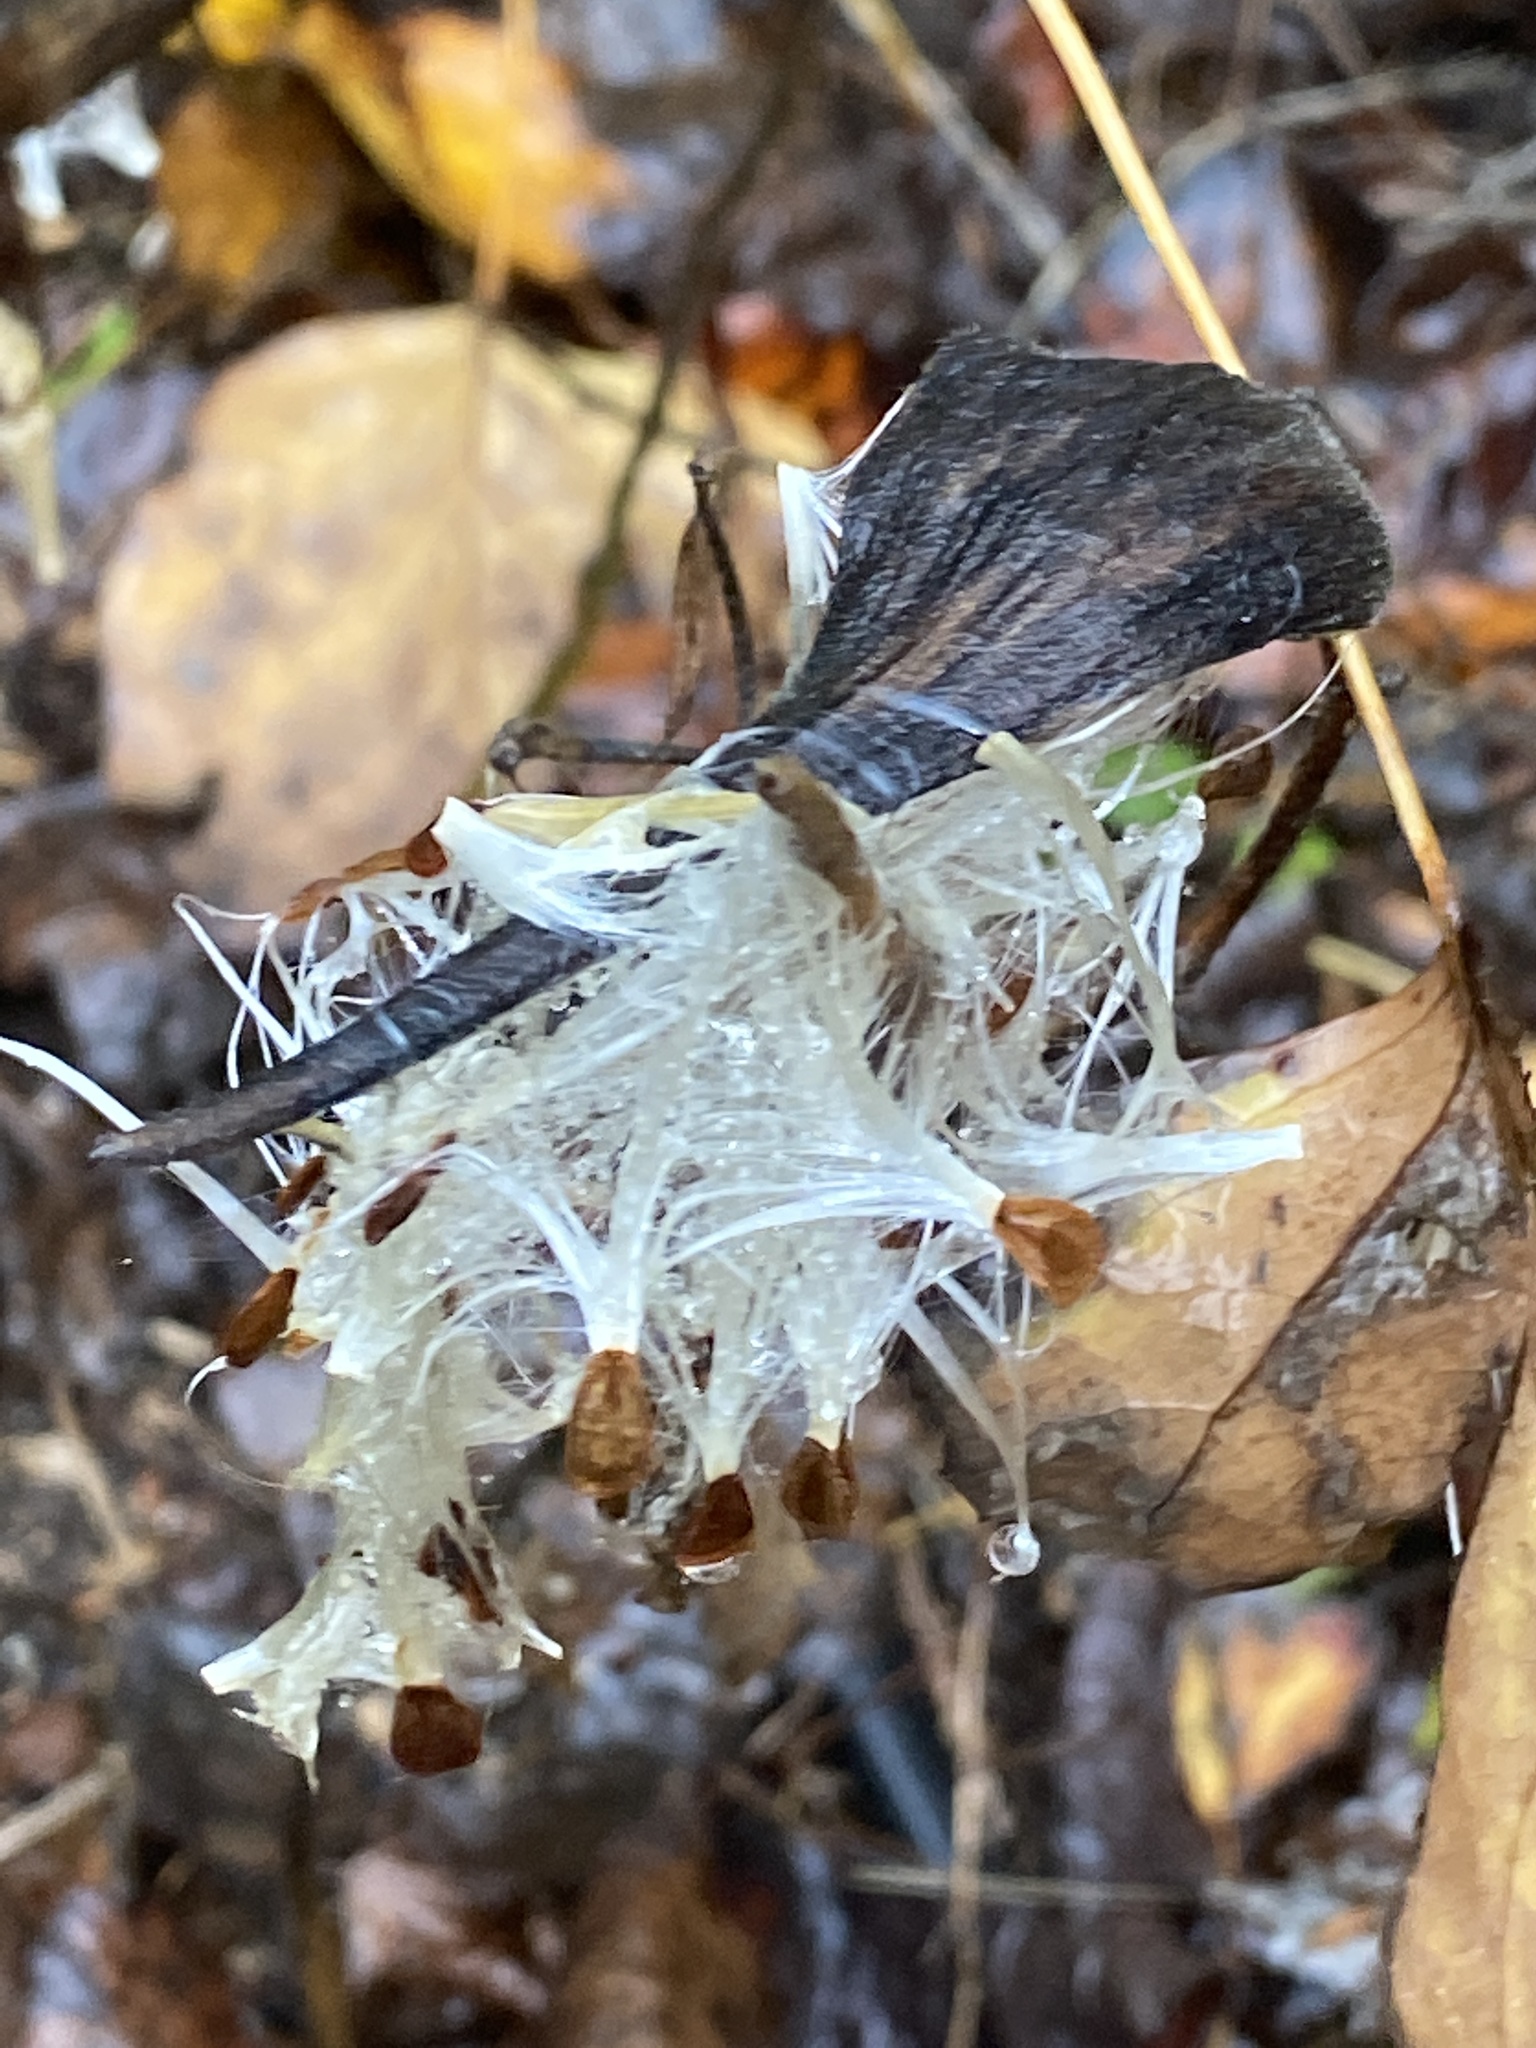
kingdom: Plantae
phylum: Tracheophyta
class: Magnoliopsida
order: Gentianales
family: Apocynaceae
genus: Asclepias
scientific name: Asclepias tuberosa
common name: Butterfly milkweed
